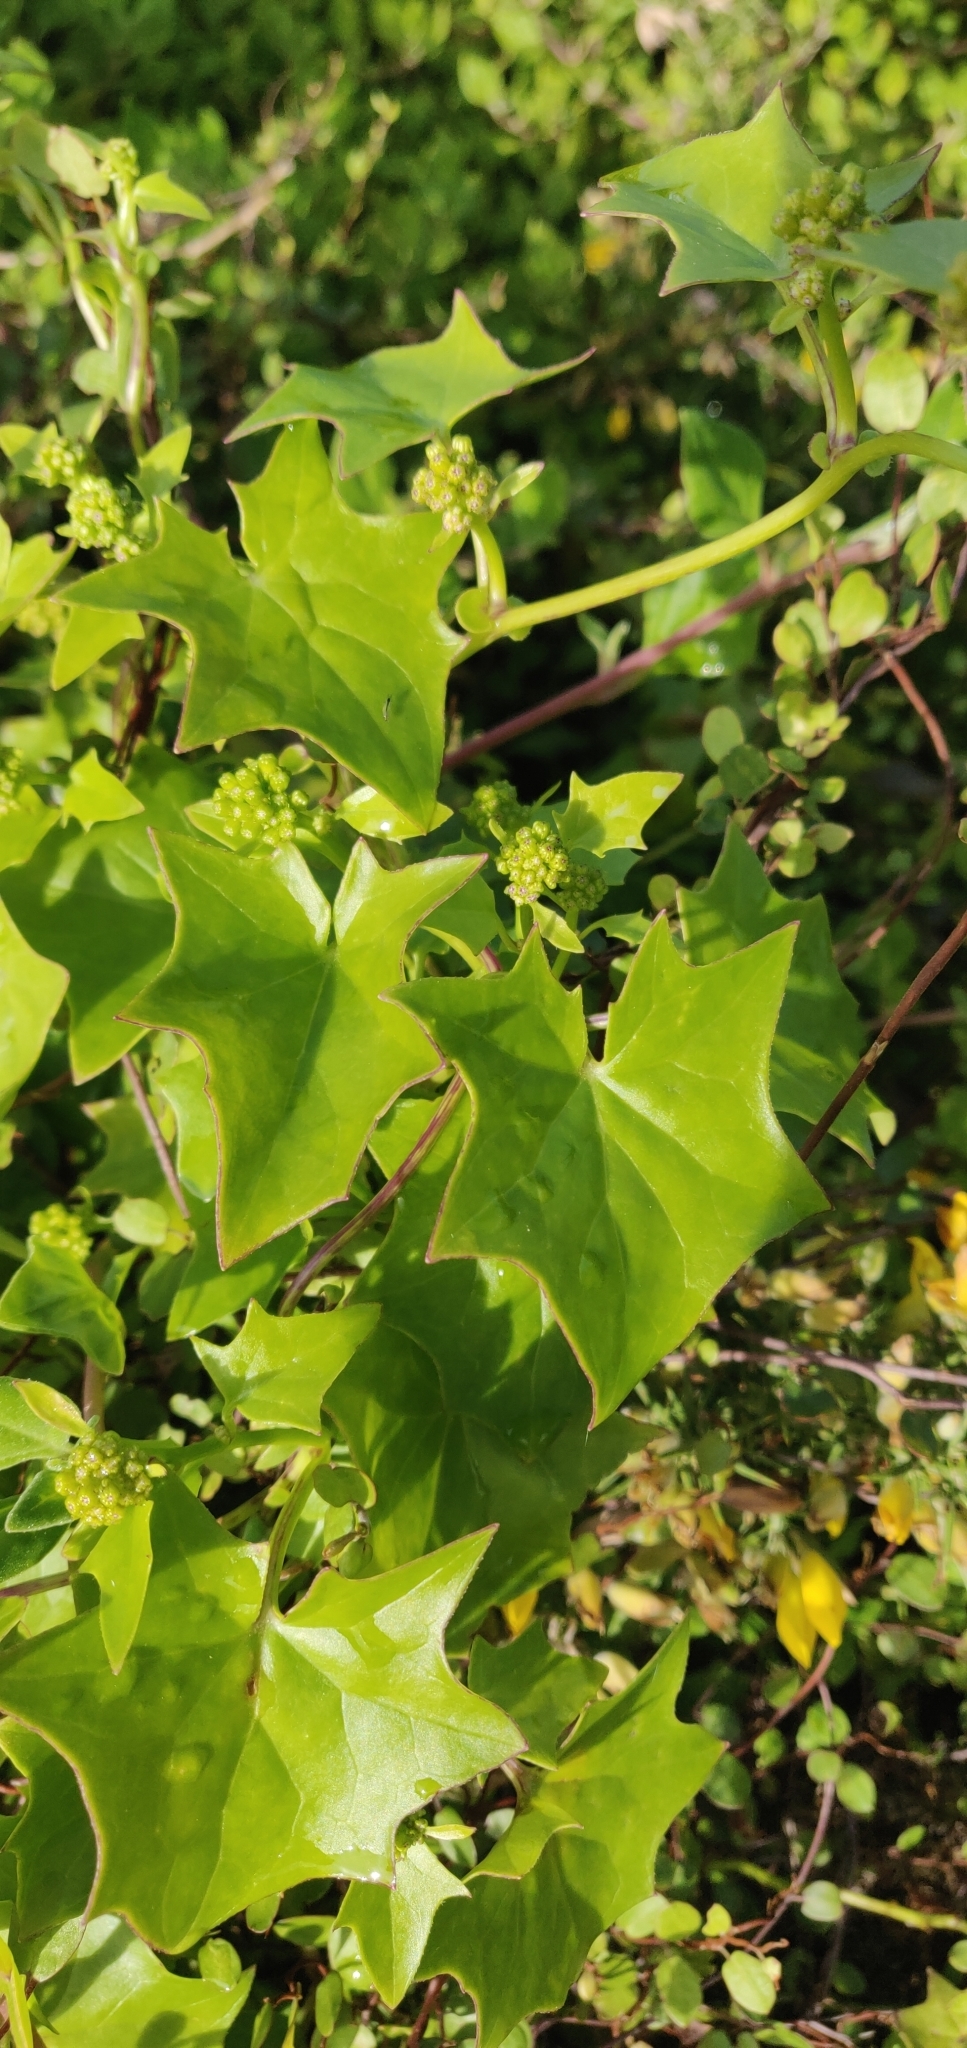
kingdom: Plantae
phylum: Tracheophyta
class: Magnoliopsida
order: Asterales
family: Asteraceae
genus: Delairea
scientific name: Delairea odorata
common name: Cape-ivy
